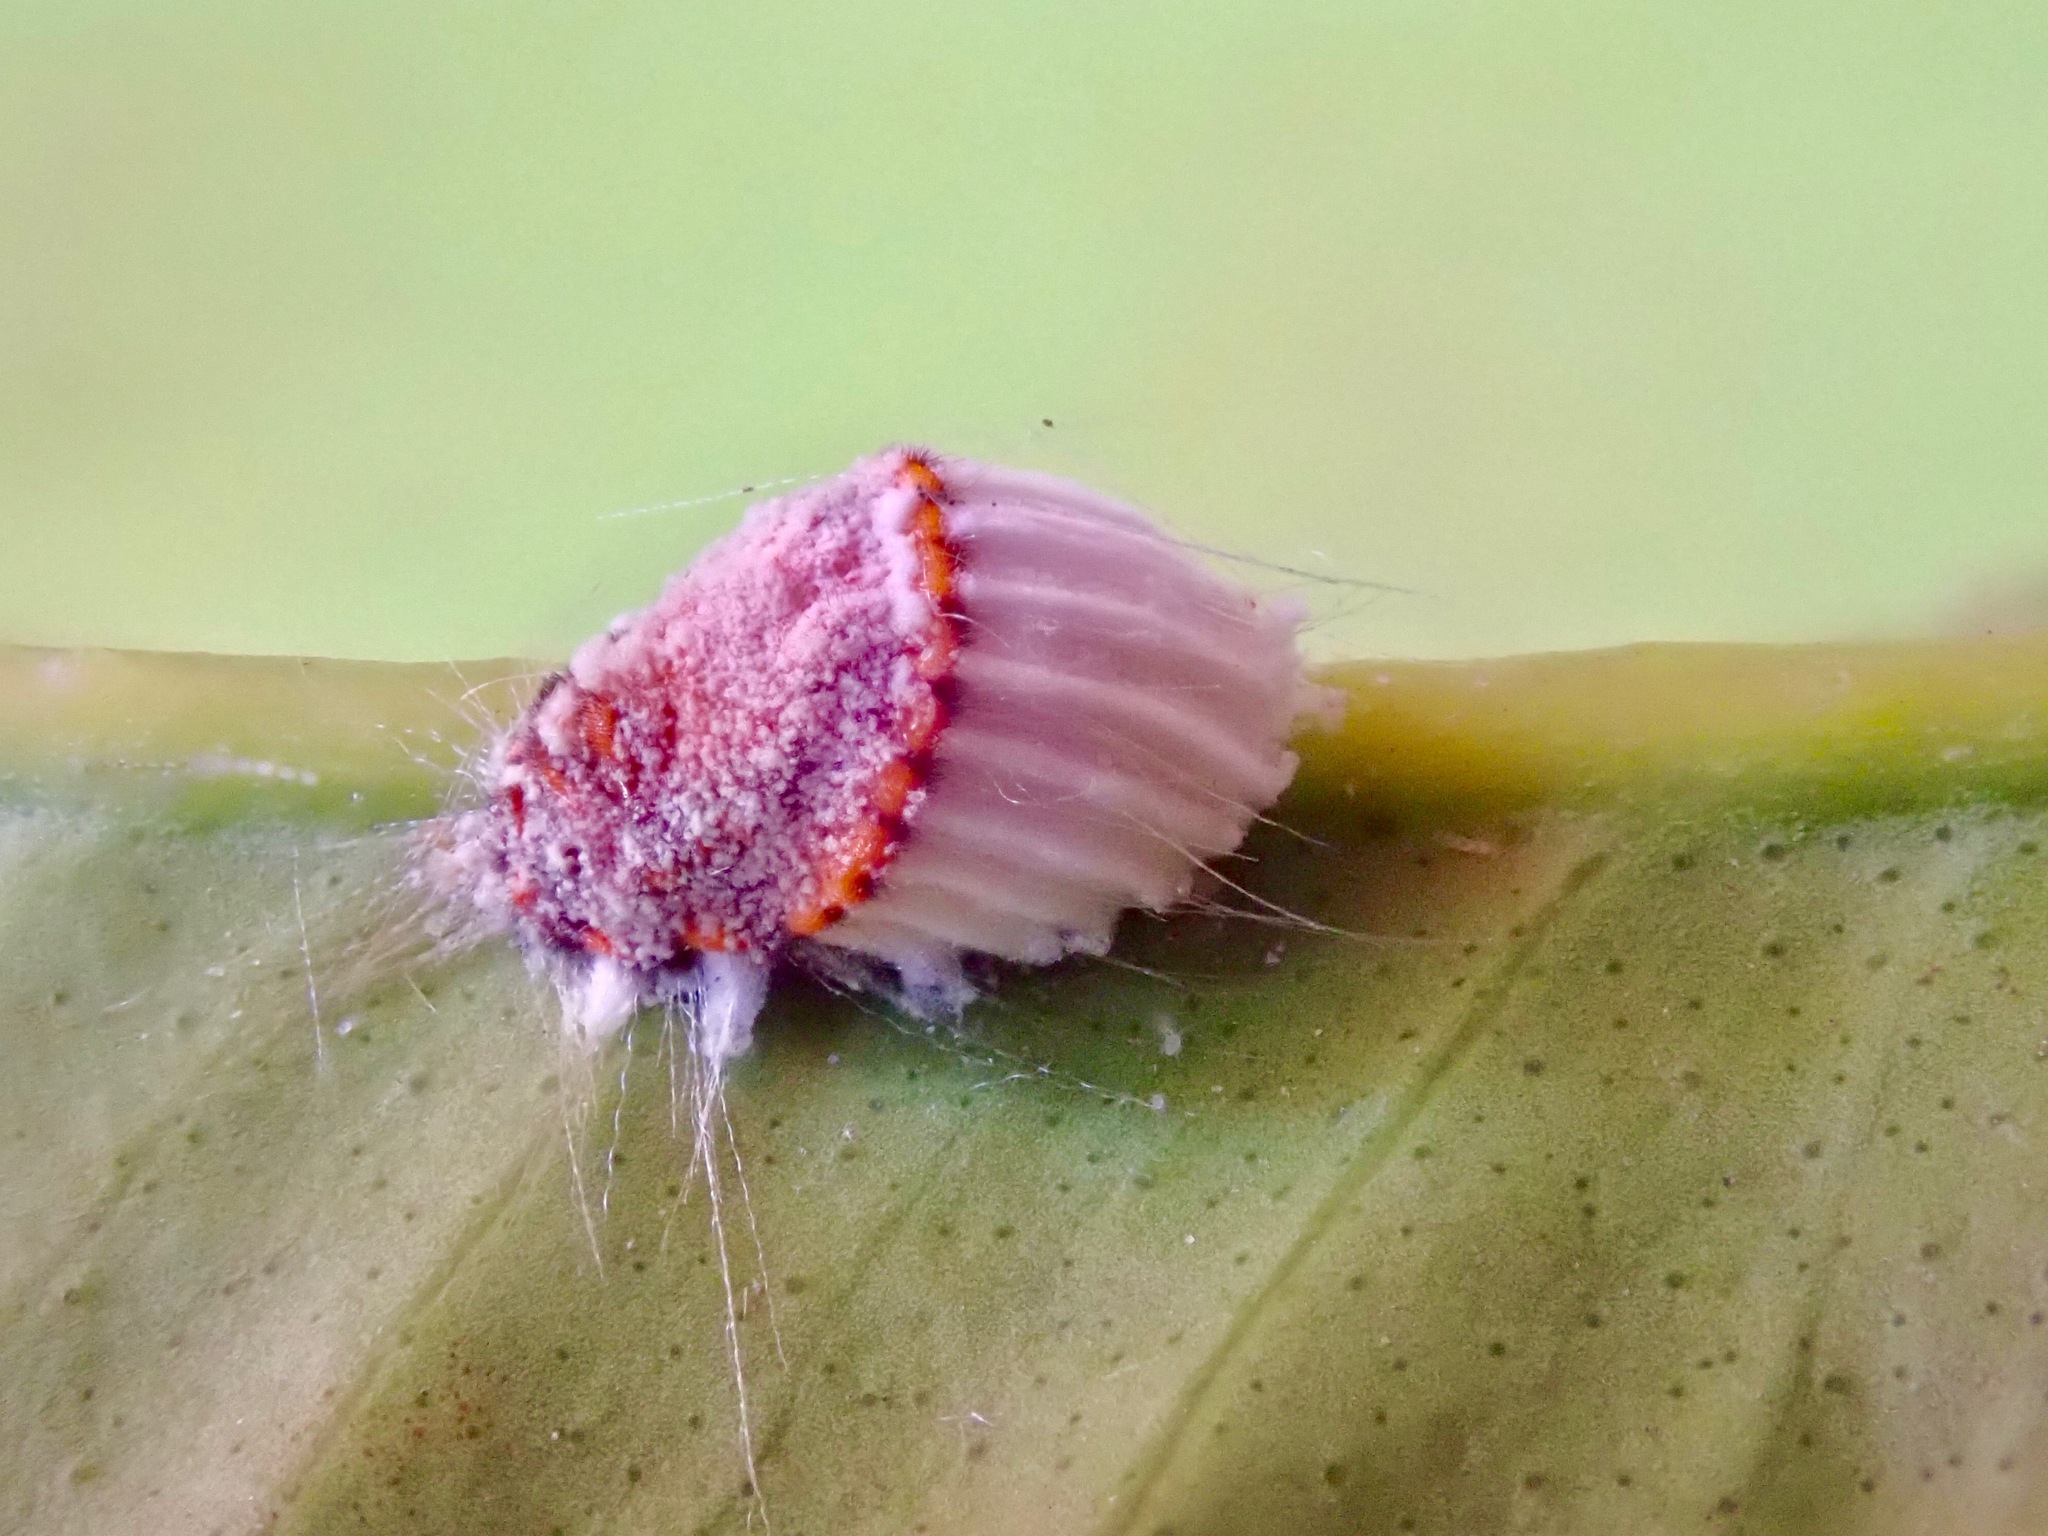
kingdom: Animalia
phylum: Arthropoda
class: Insecta
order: Hemiptera
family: Margarodidae
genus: Icerya
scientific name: Icerya purchasi
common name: Cottony cushion scale
